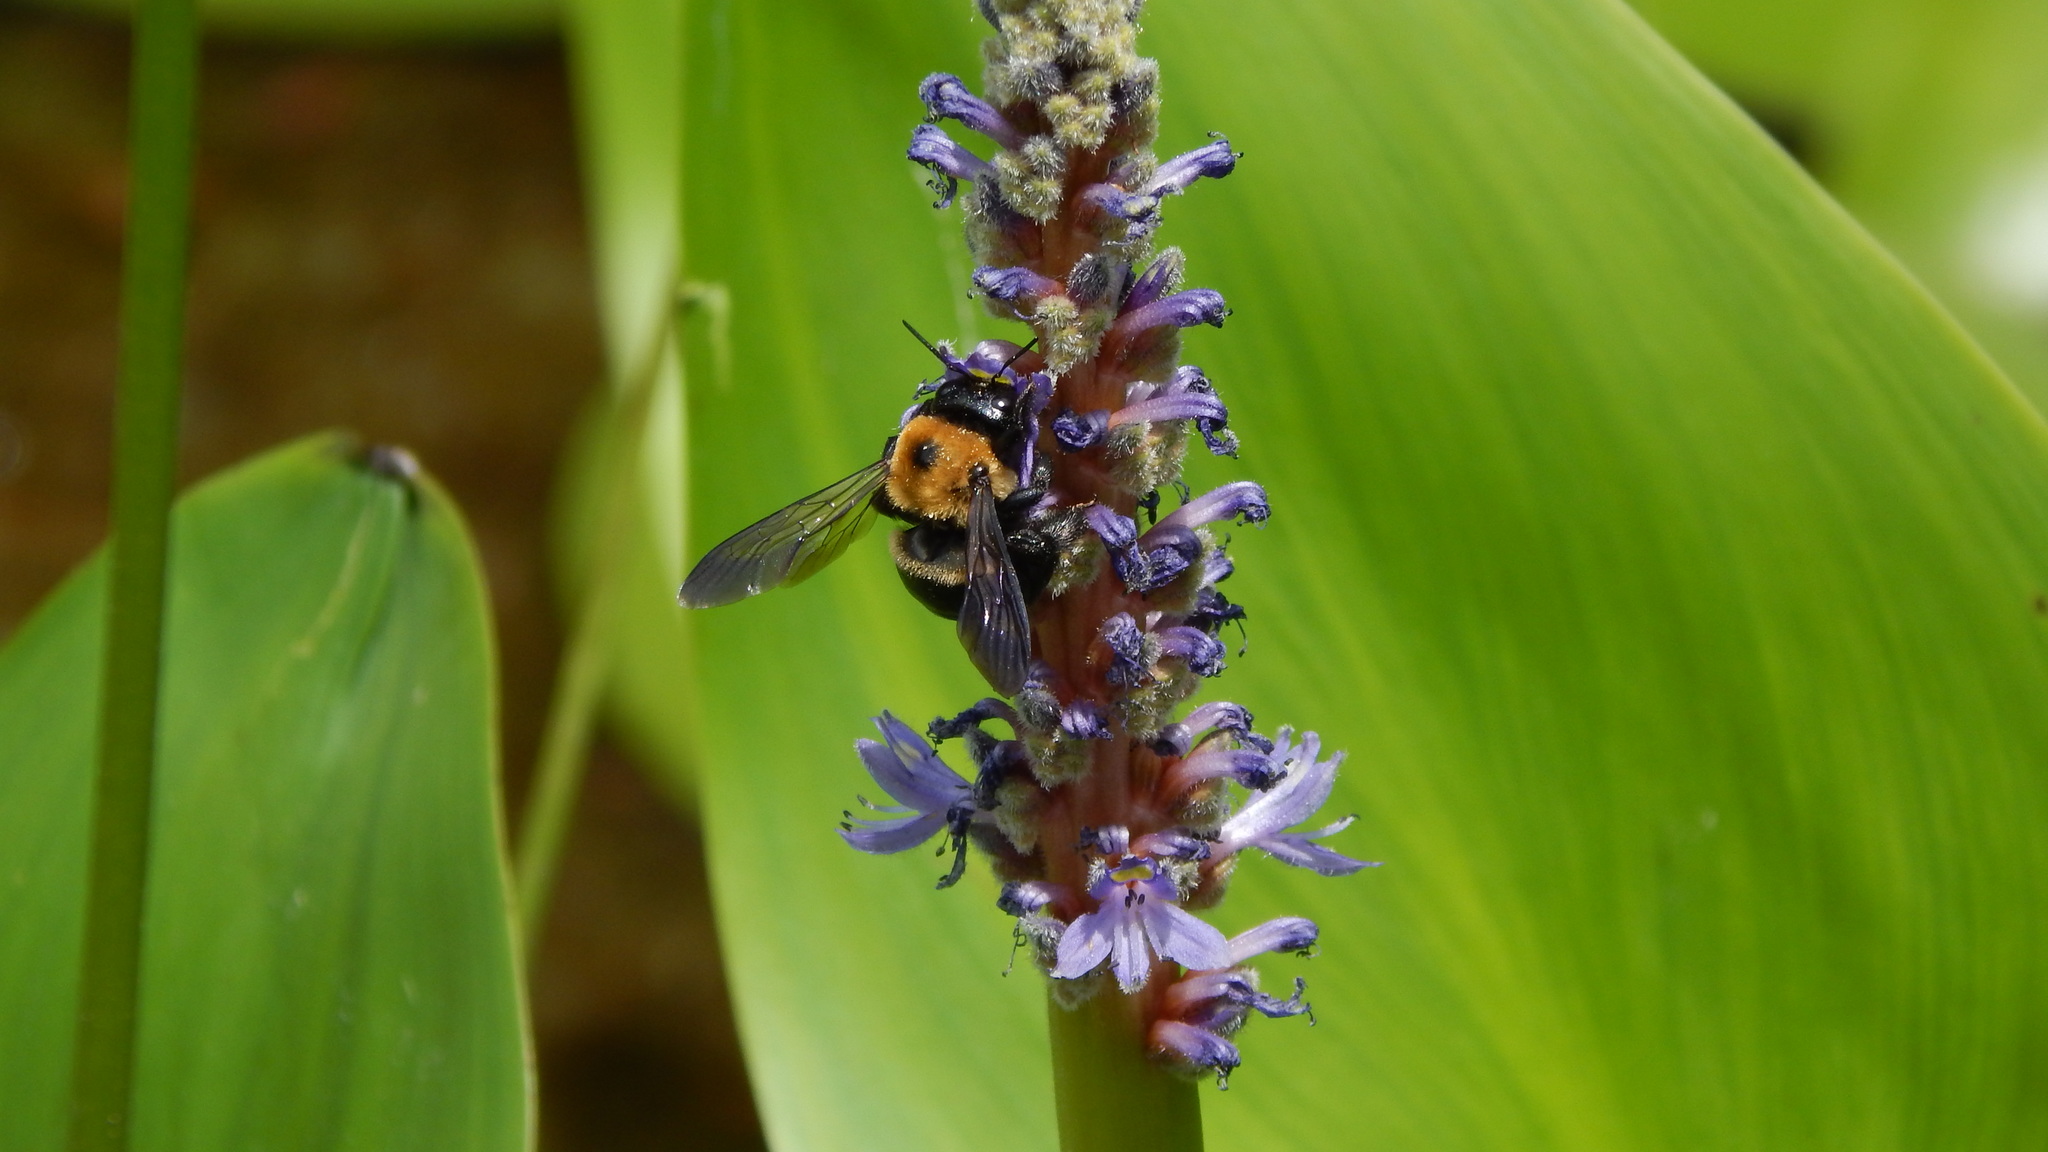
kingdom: Animalia
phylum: Arthropoda
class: Insecta
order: Hymenoptera
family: Apidae
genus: Xylocopa
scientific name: Xylocopa virginica
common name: Carpenter bee
